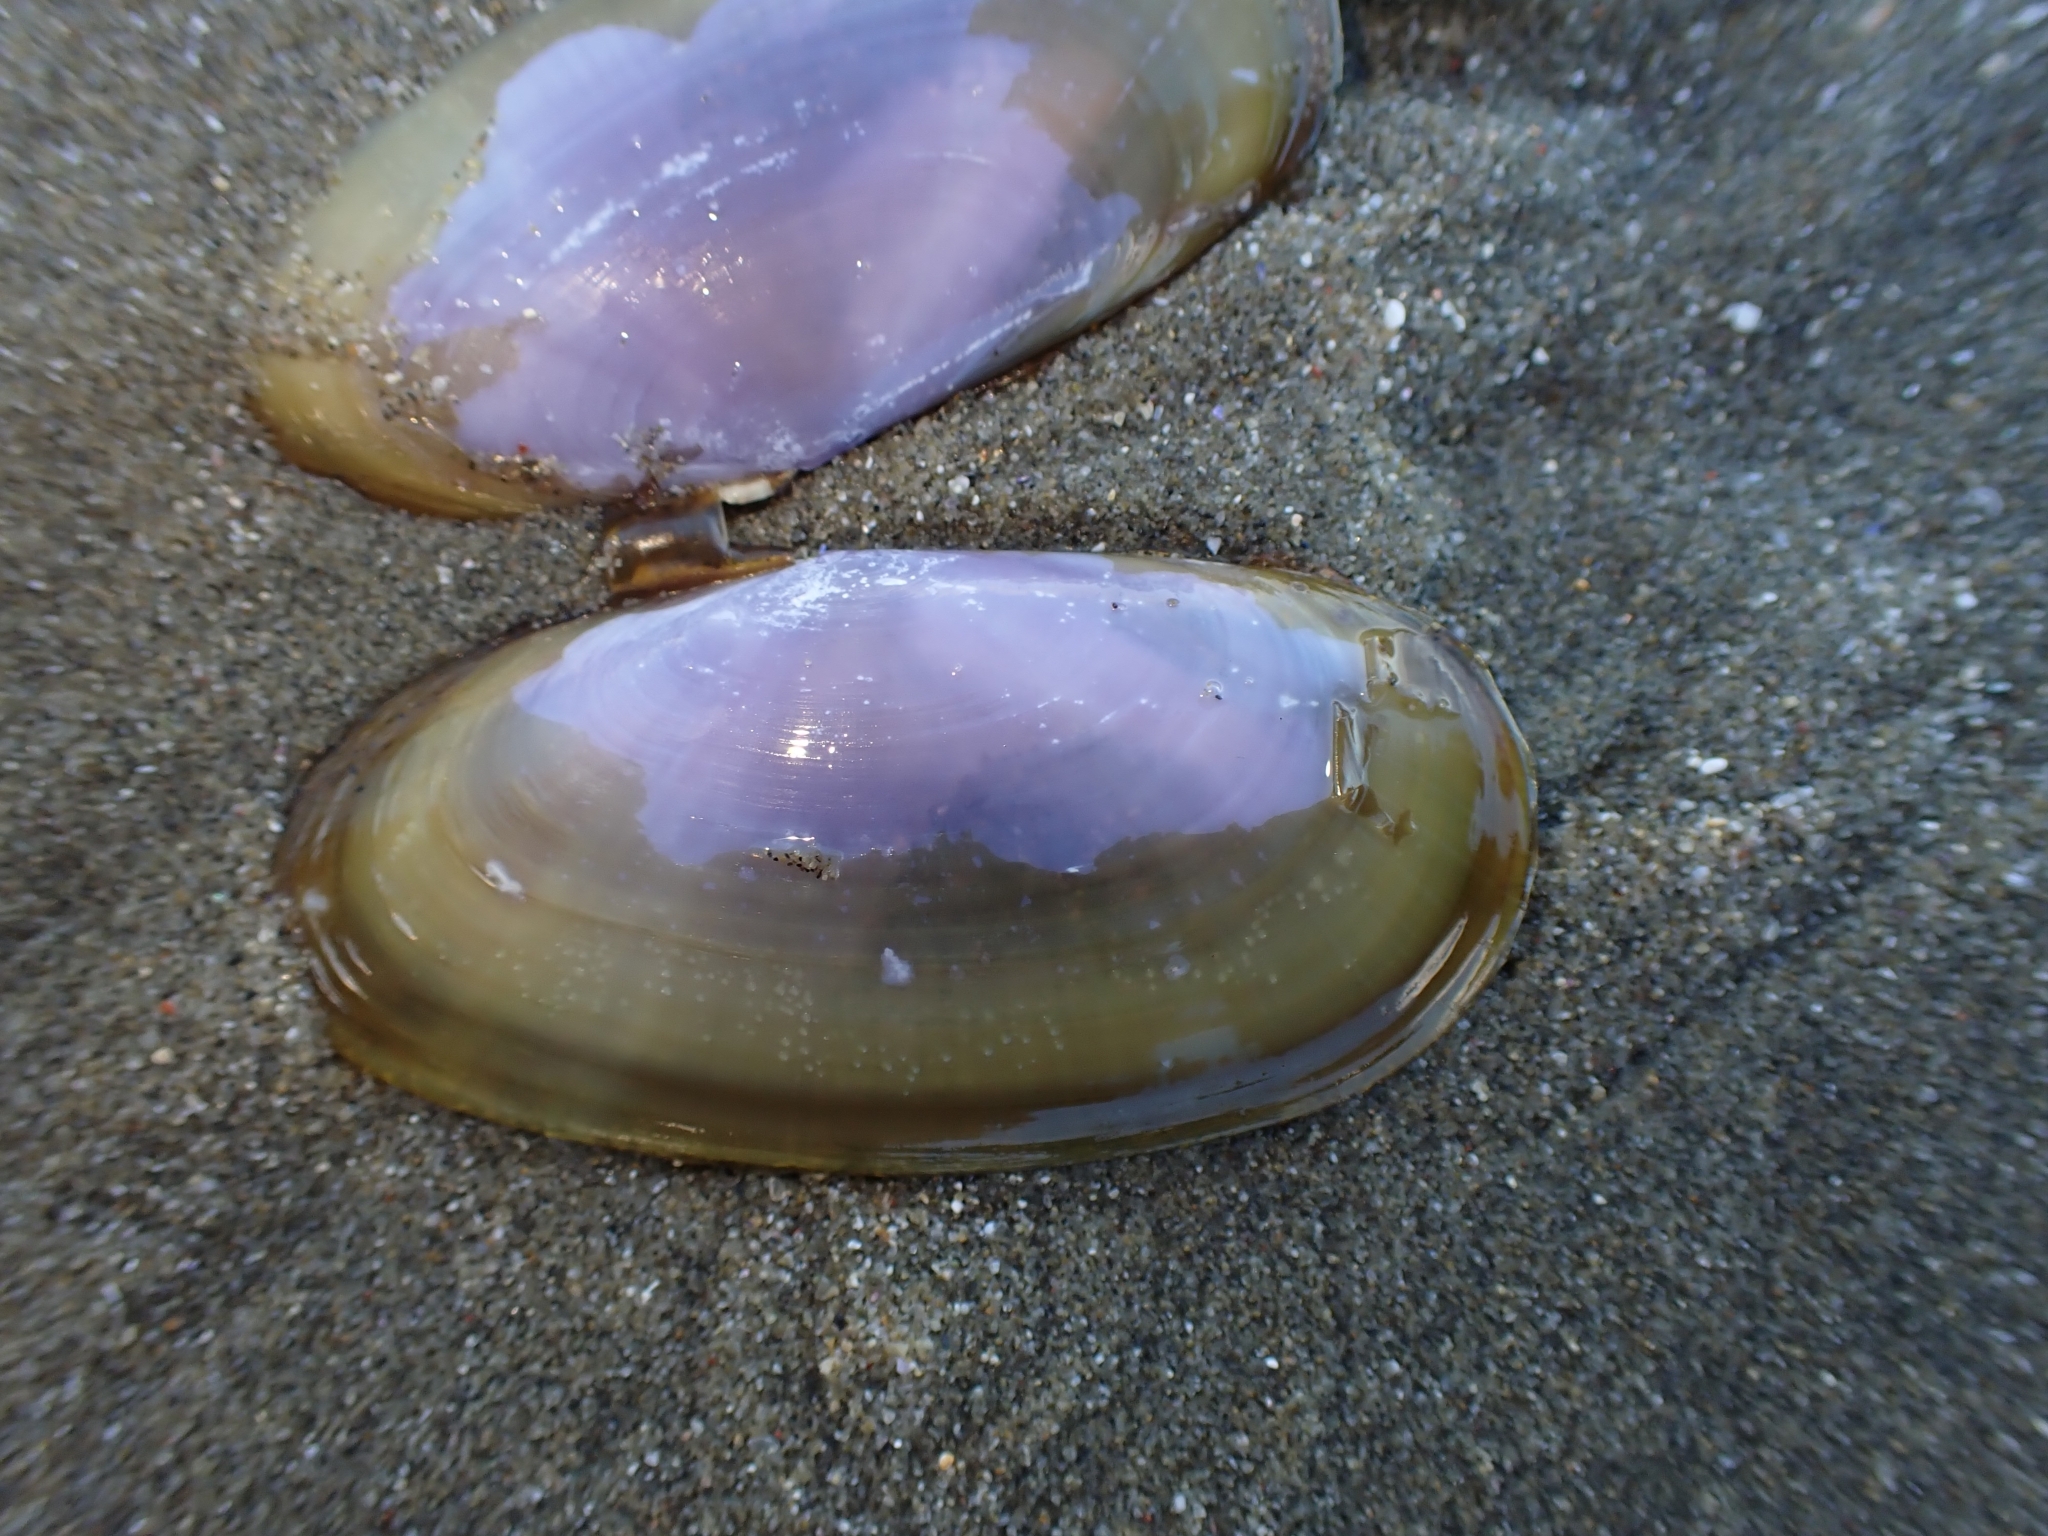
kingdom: Animalia
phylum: Mollusca
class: Bivalvia
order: Cardiida
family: Psammobiidae
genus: Hiatula
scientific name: Hiatula nitida
